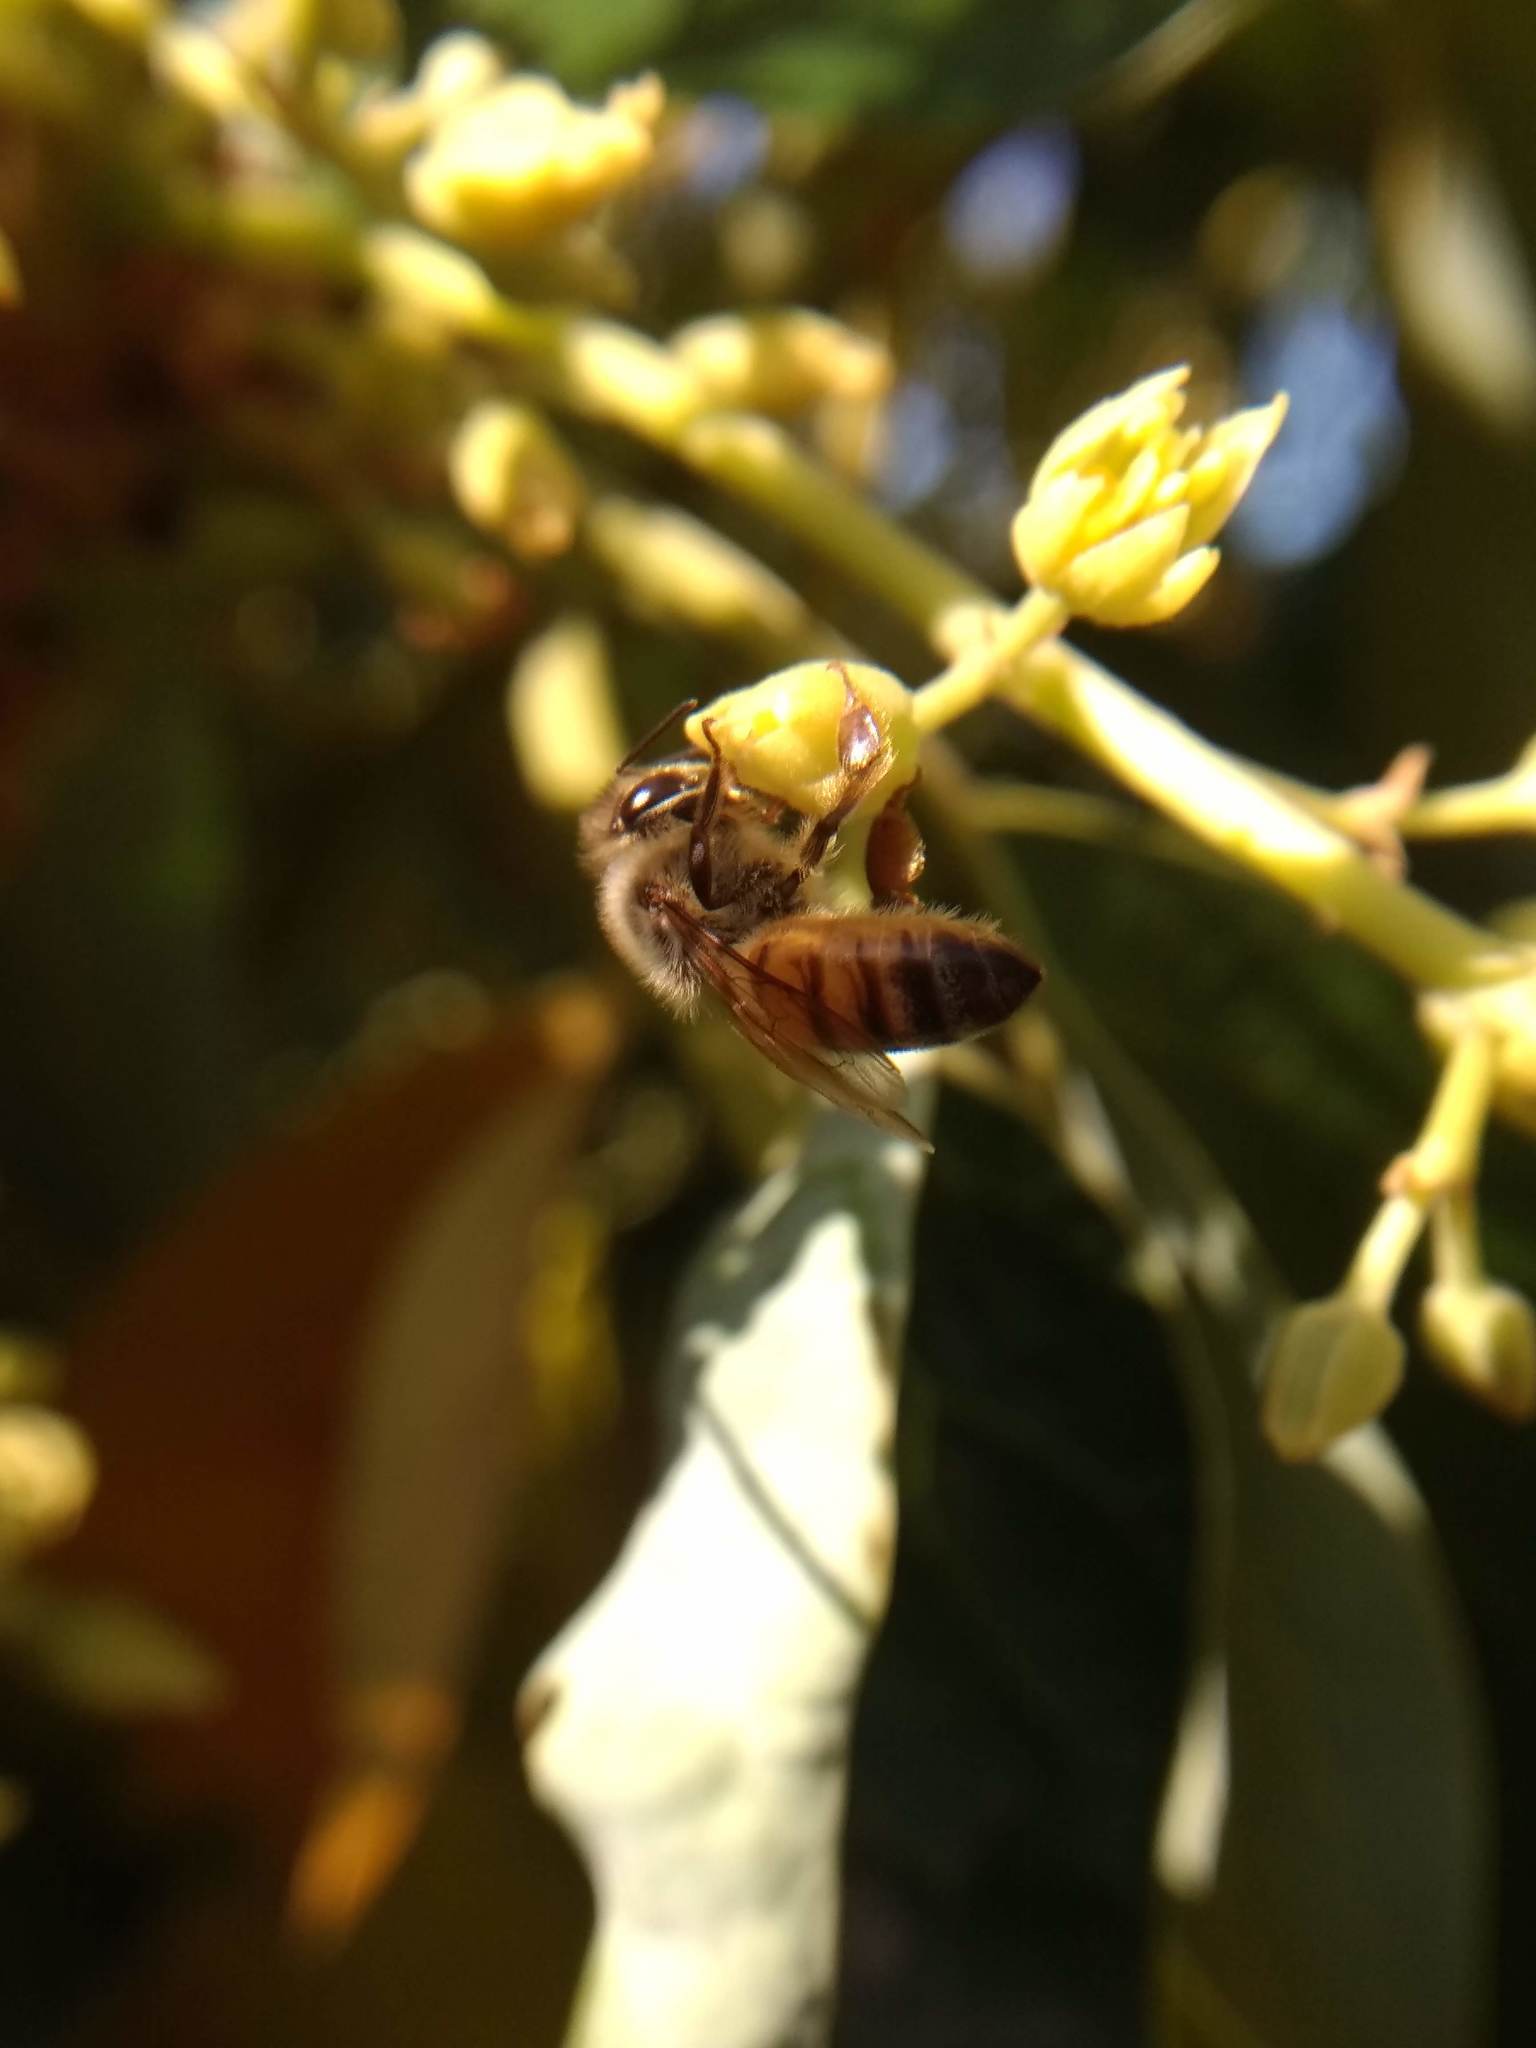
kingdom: Animalia
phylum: Arthropoda
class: Insecta
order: Hymenoptera
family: Apidae
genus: Apis
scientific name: Apis mellifera
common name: Honey bee
